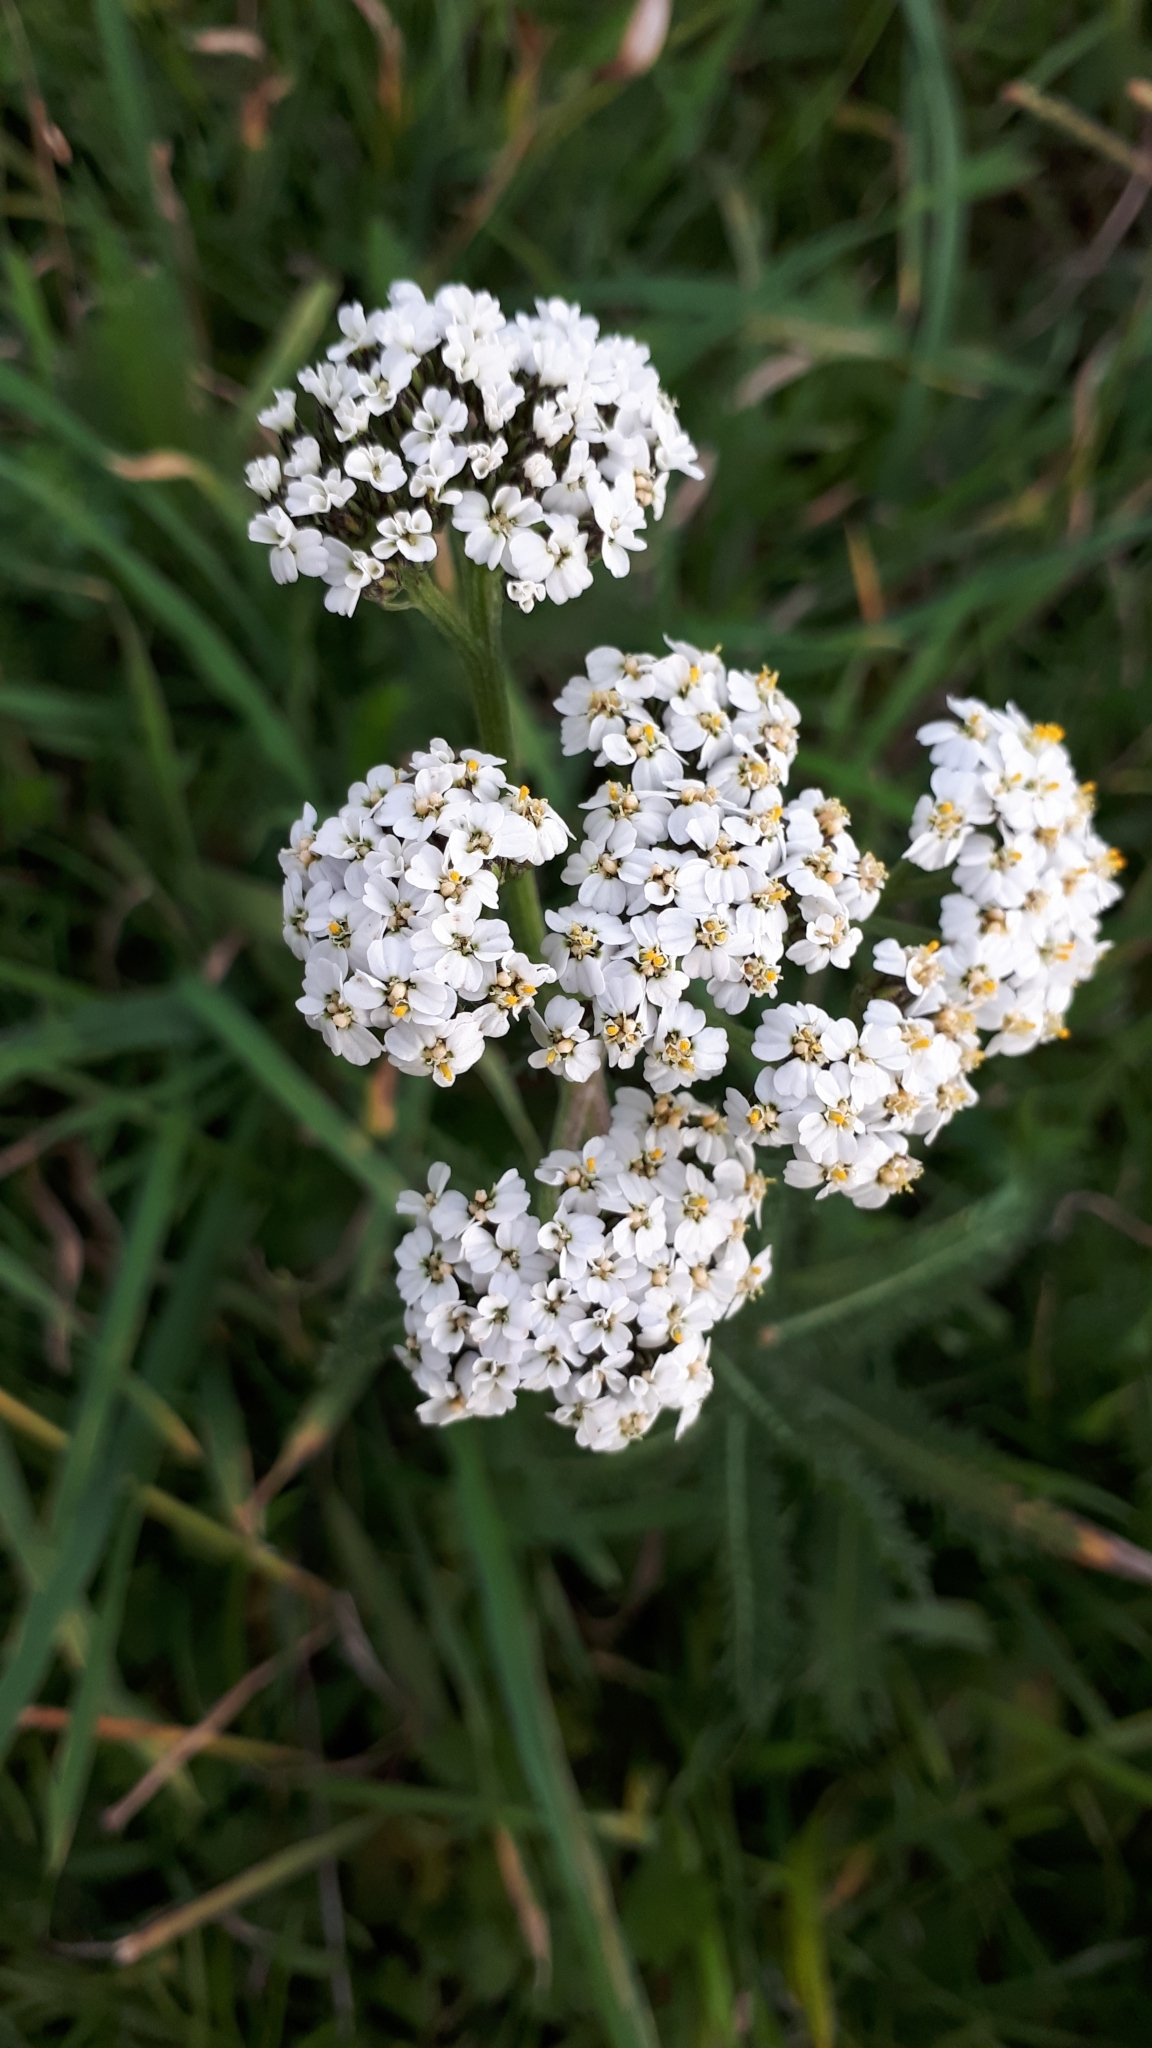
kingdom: Plantae
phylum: Tracheophyta
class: Magnoliopsida
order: Asterales
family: Asteraceae
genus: Achillea
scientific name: Achillea millefolium
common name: Yarrow
